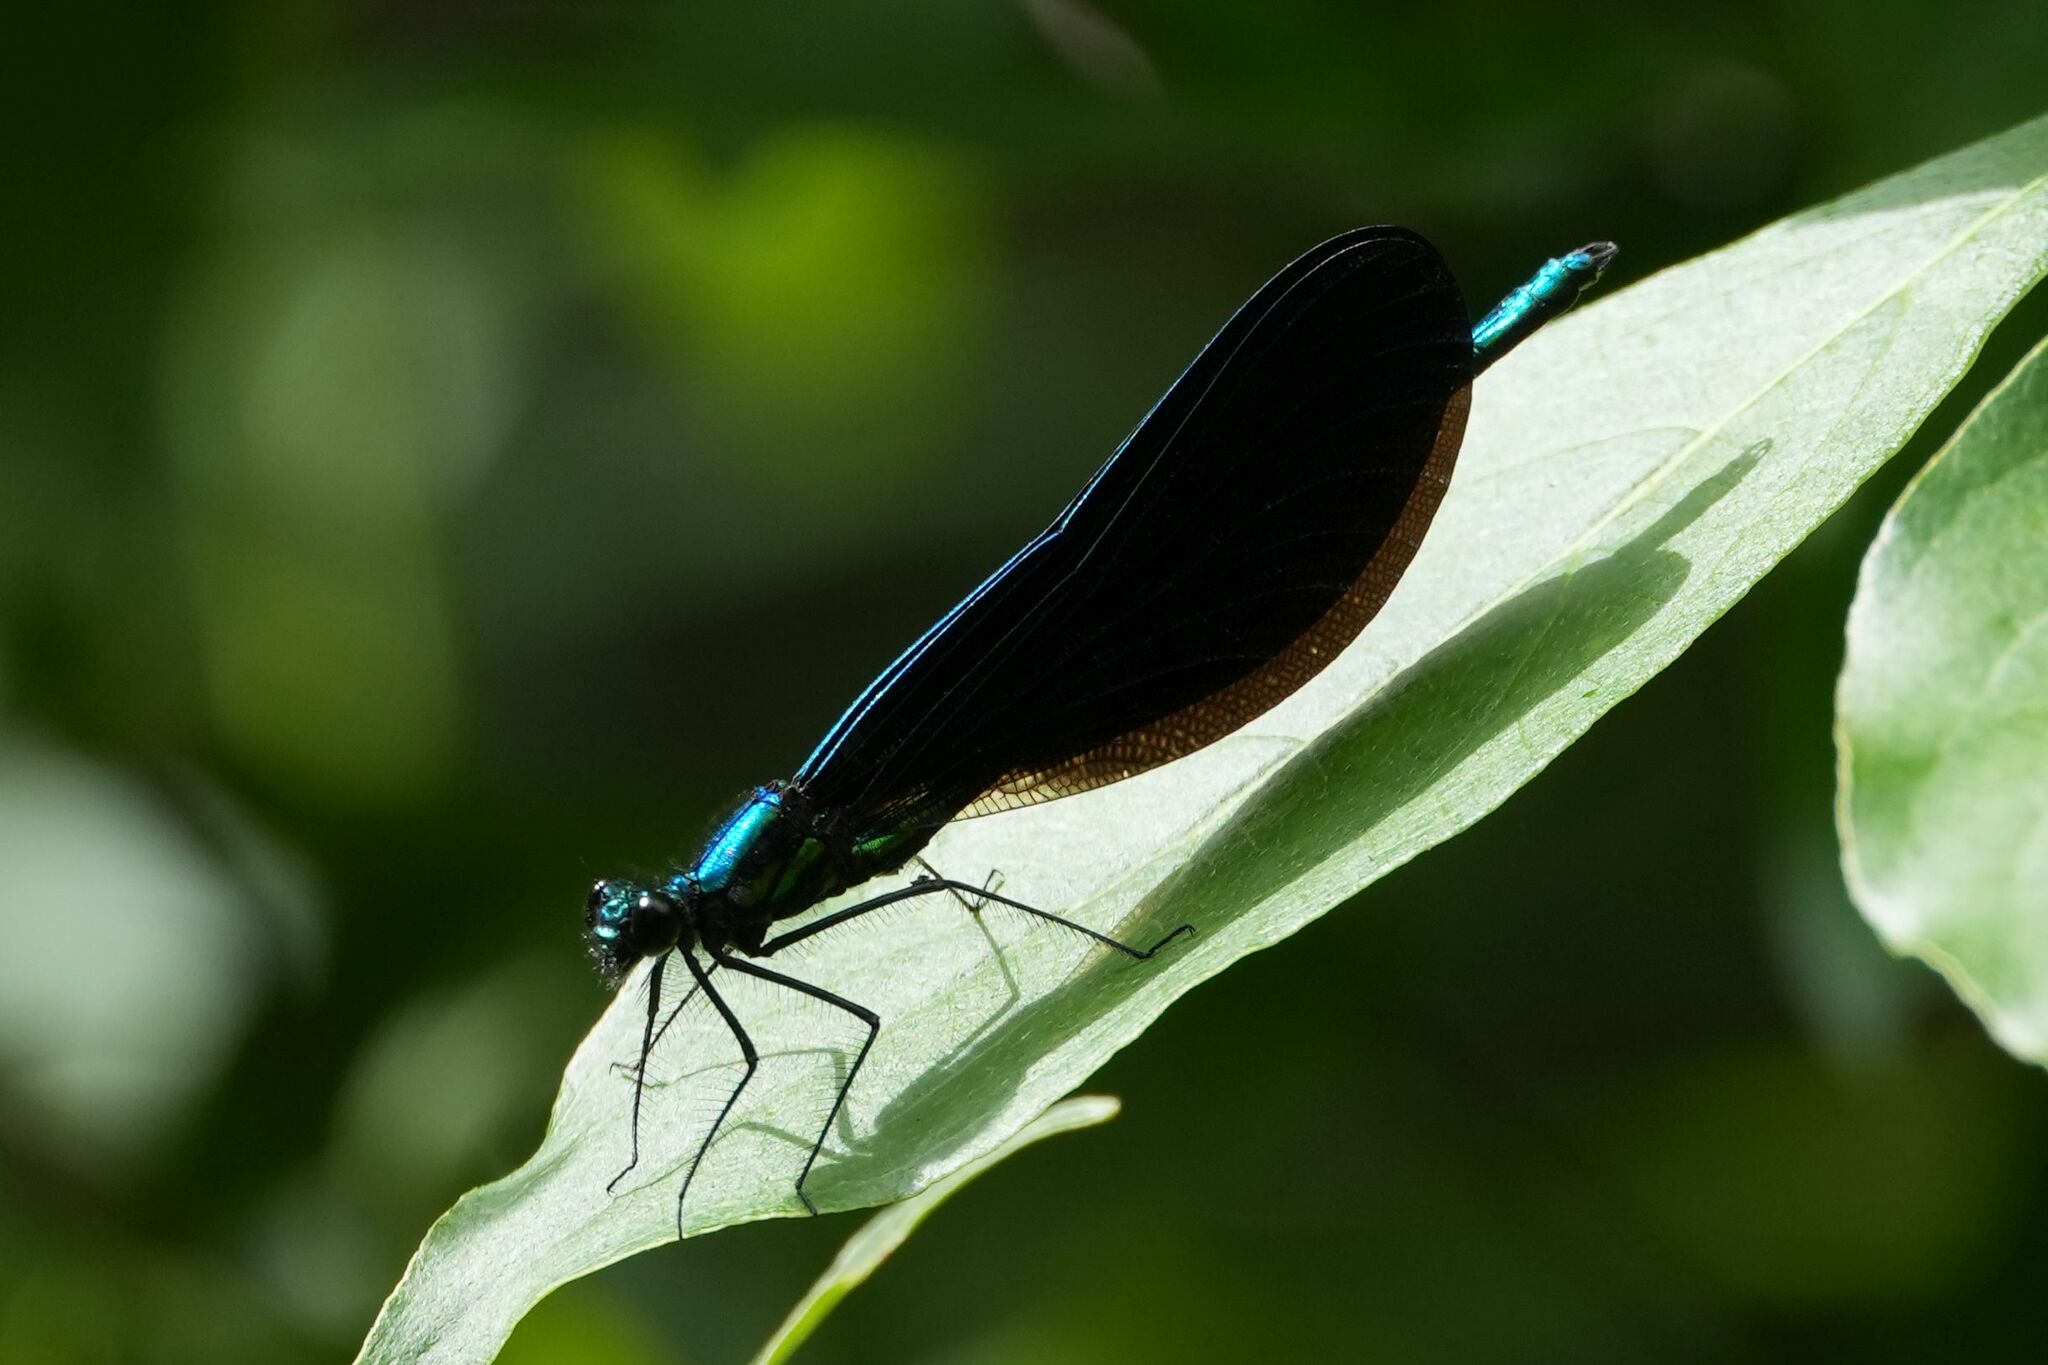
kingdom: Animalia
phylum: Arthropoda
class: Insecta
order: Odonata
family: Calopterygidae
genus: Calopteryx
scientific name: Calopteryx maculata
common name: Ebony jewelwing
